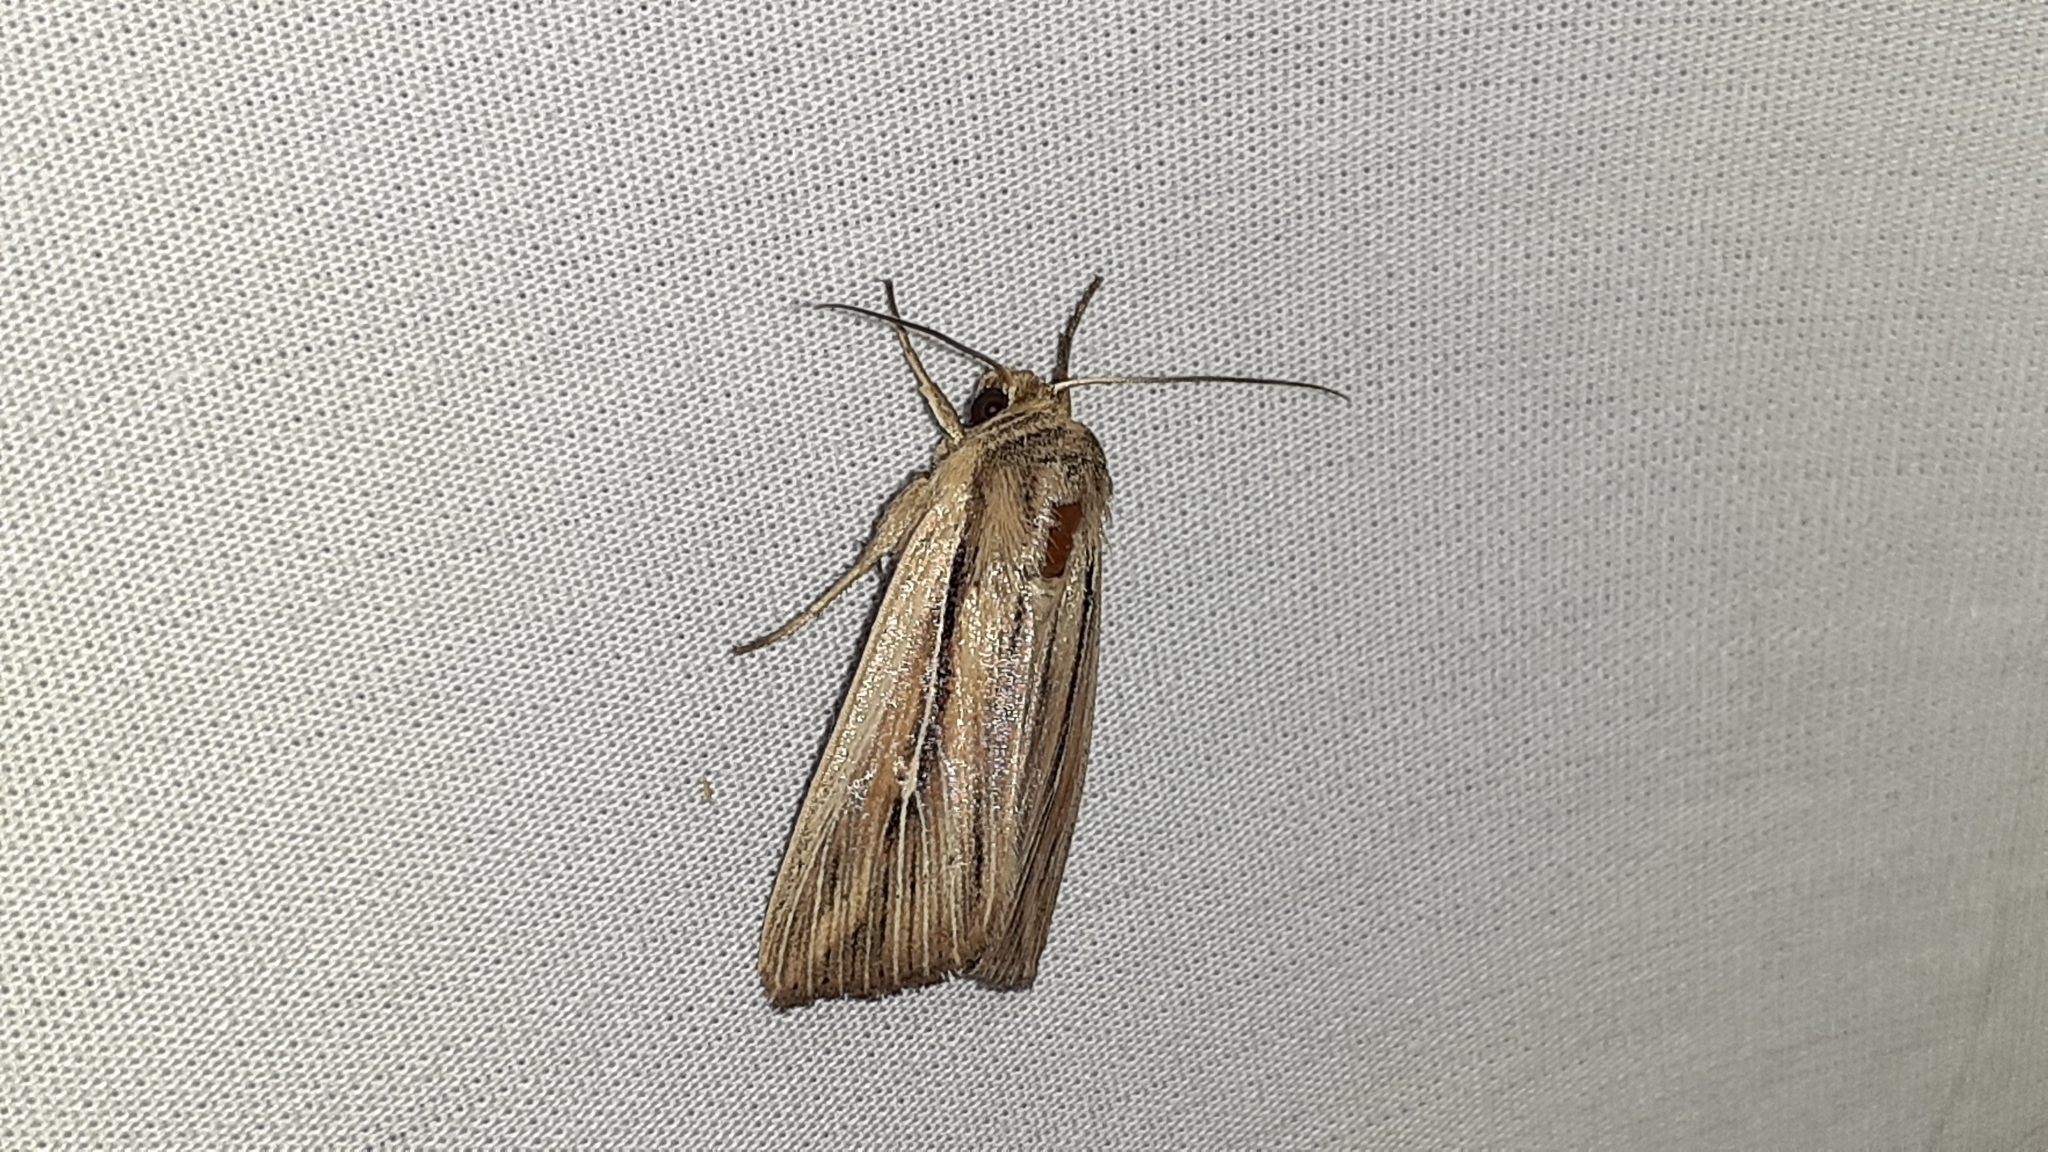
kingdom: Animalia
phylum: Arthropoda
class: Insecta
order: Lepidoptera
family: Noctuidae
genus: Dargida
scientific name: Dargida diffusa
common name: Wheat head armyworm
